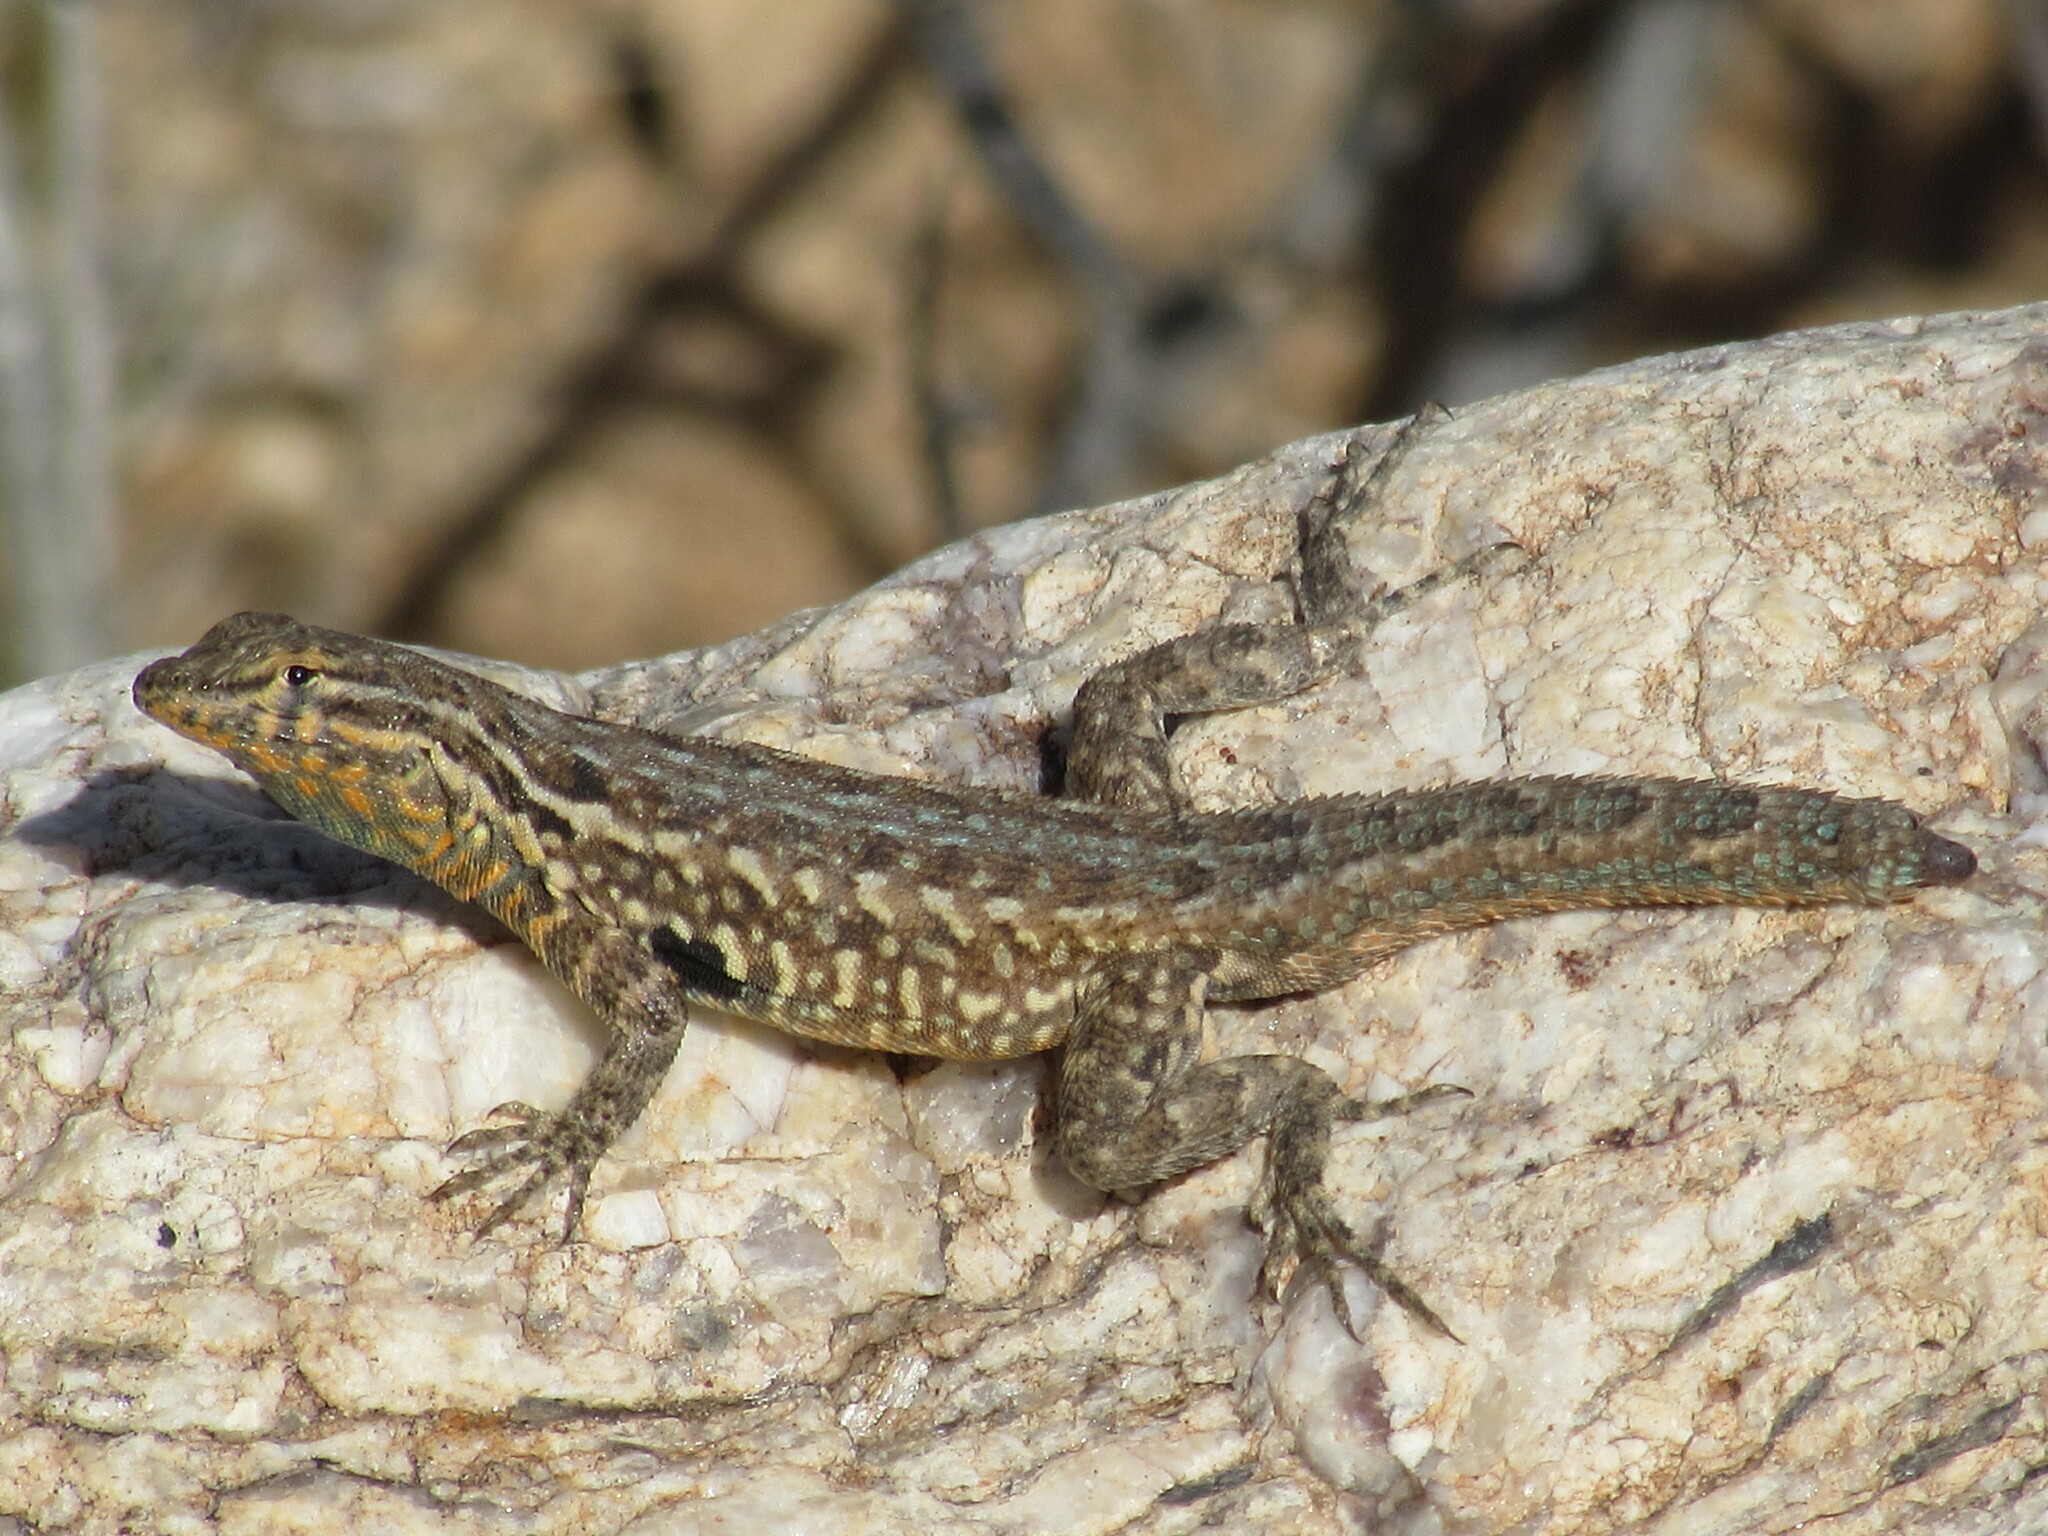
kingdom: Animalia
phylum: Chordata
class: Squamata
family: Phrynosomatidae
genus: Uta
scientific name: Uta stansburiana
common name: Side-blotched lizard
